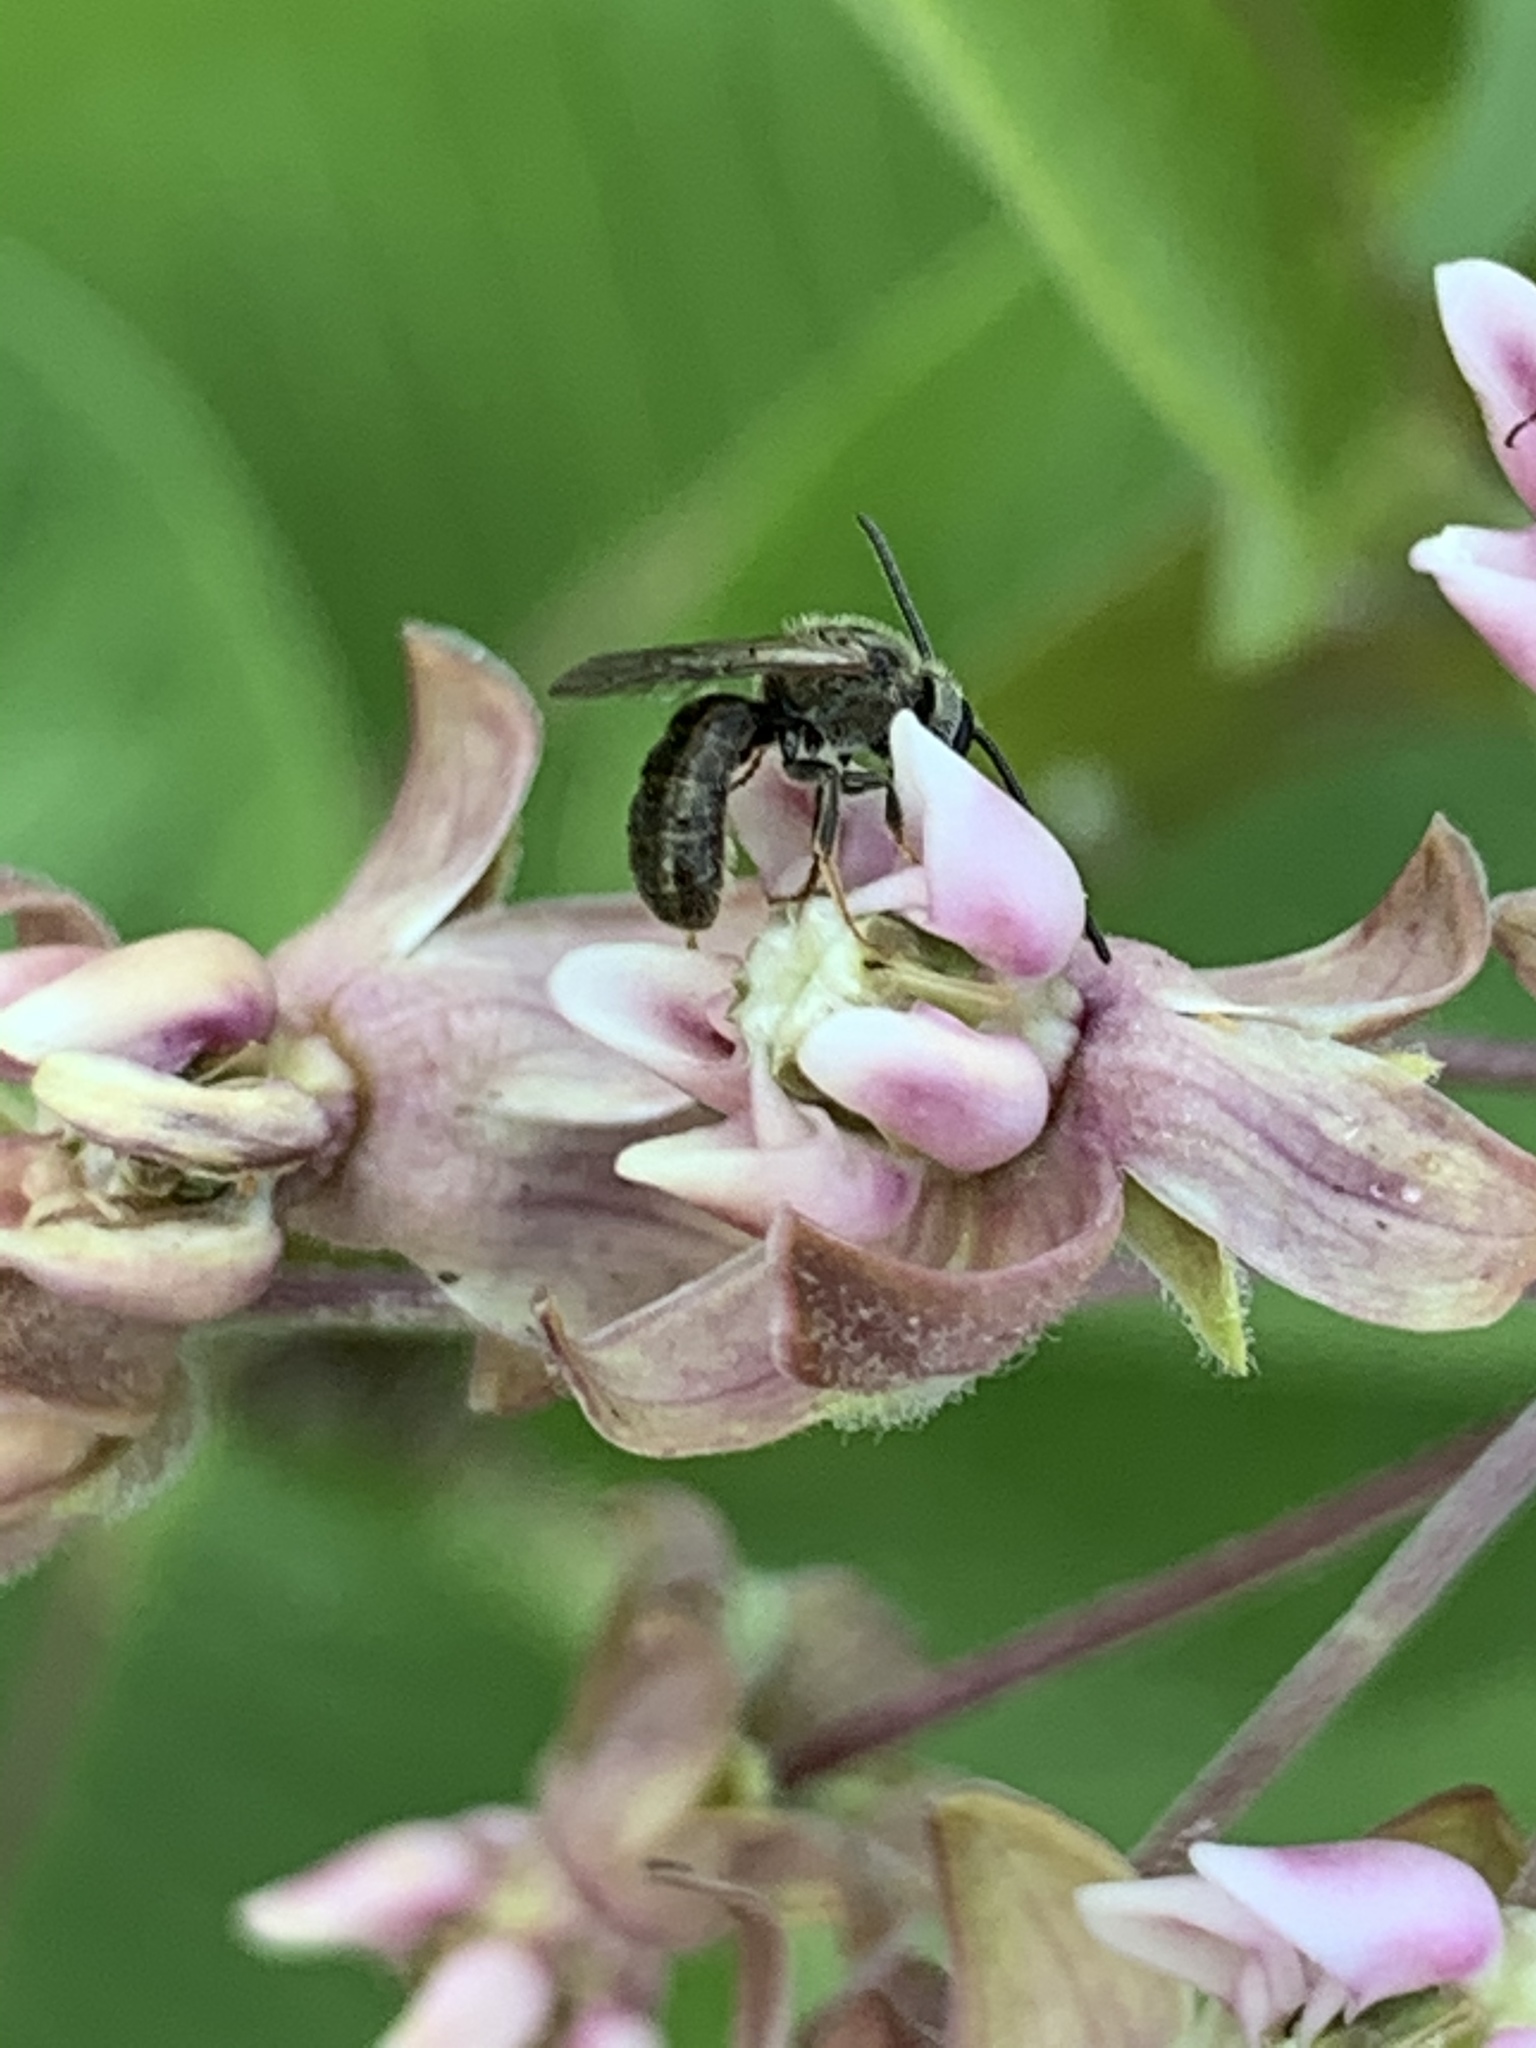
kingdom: Animalia
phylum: Arthropoda
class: Insecta
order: Hymenoptera
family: Halictidae
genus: Dialictus
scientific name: Dialictus
